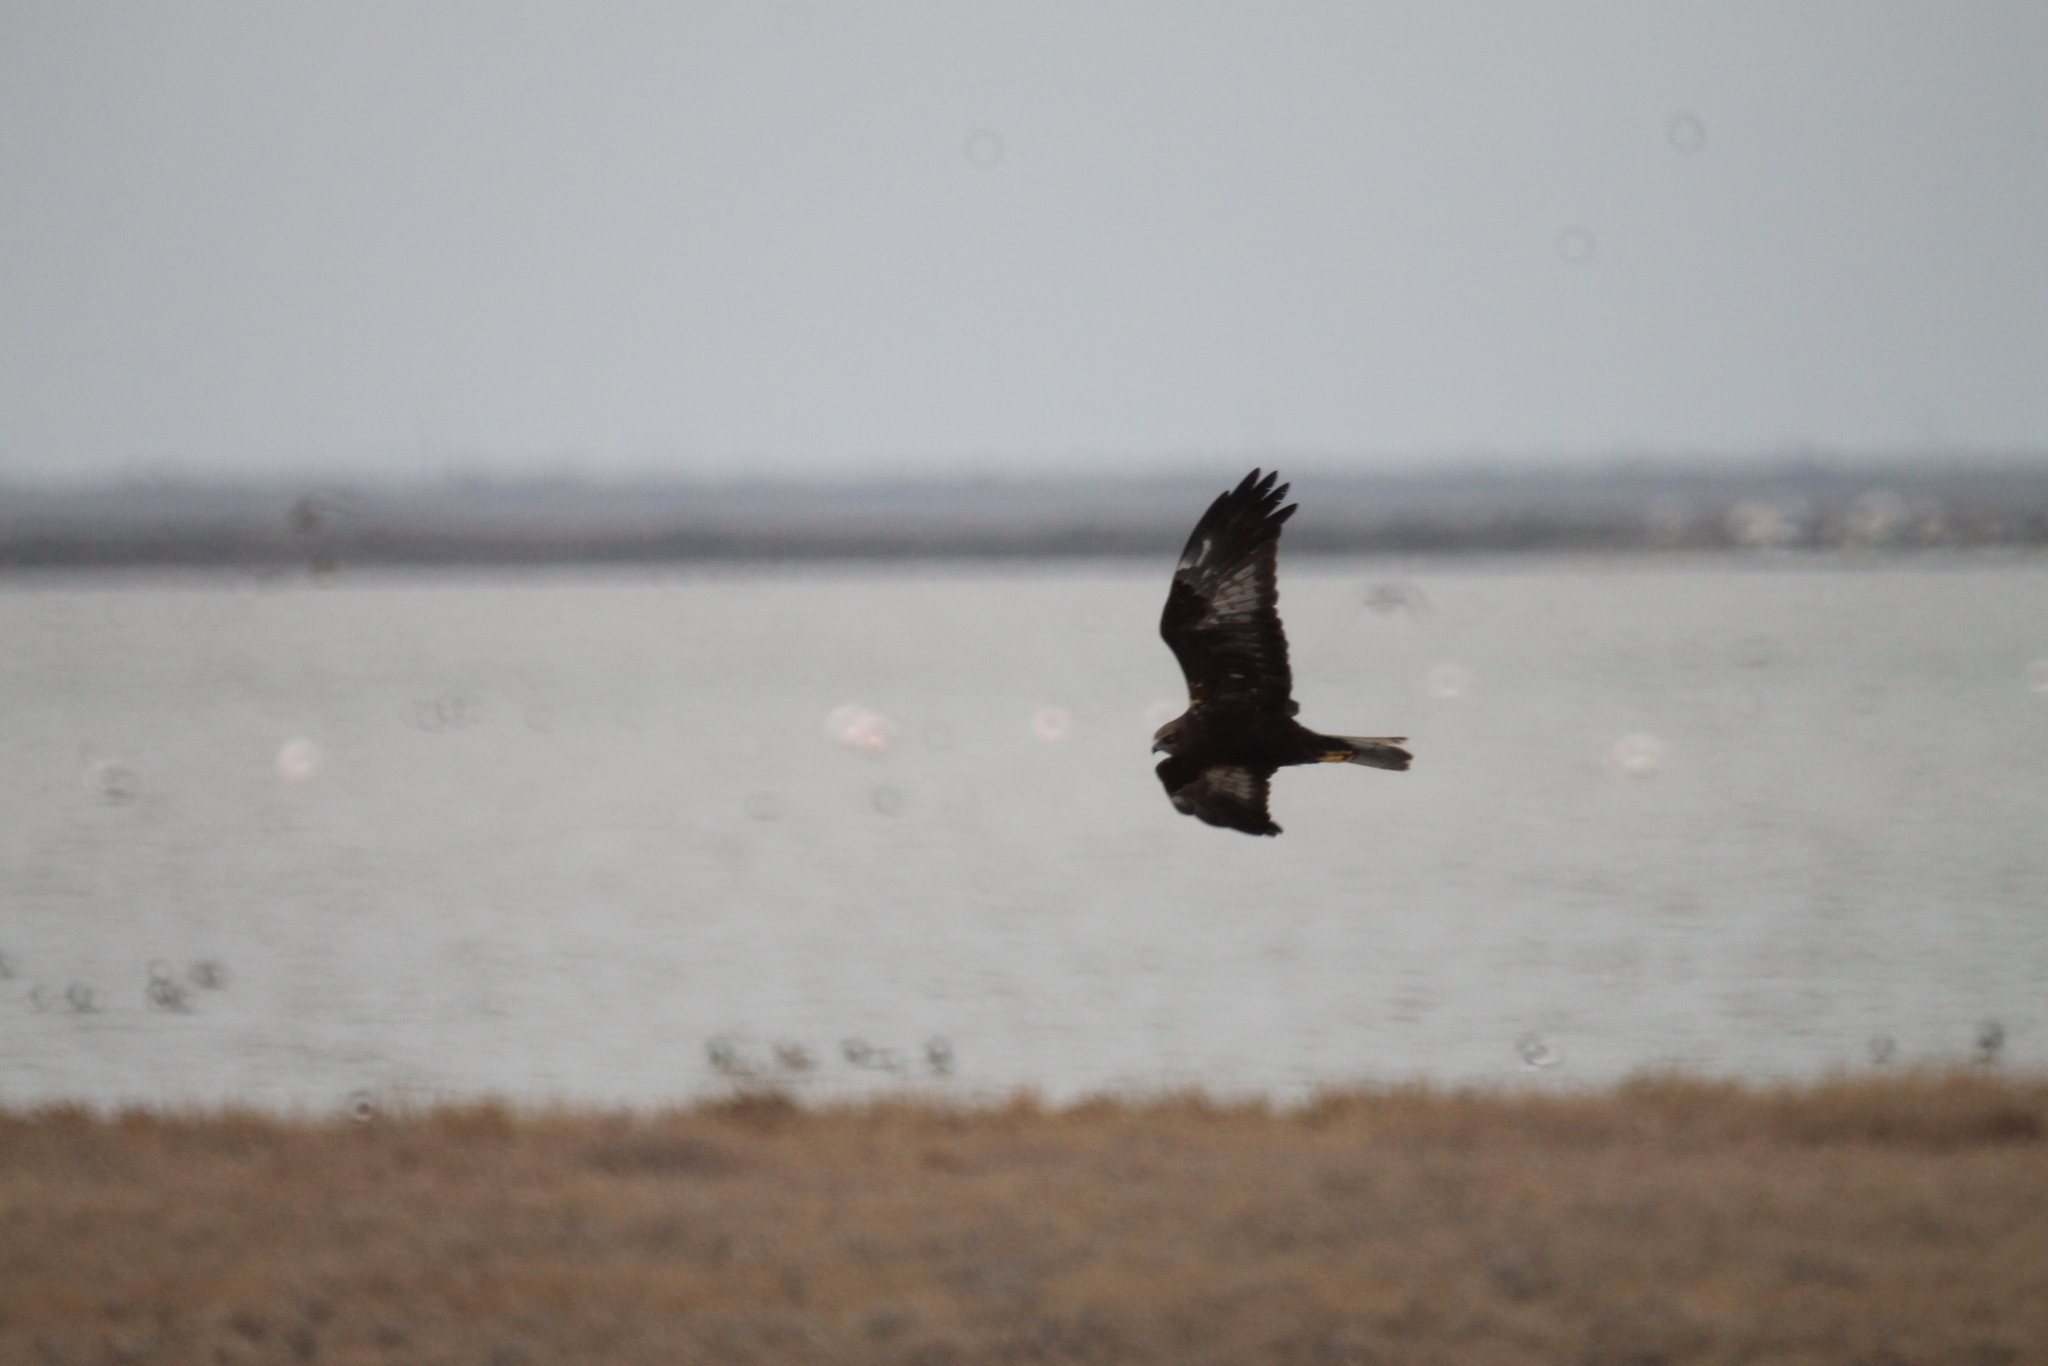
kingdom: Animalia
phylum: Chordata
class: Aves
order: Accipitriformes
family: Accipitridae
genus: Circus
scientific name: Circus aeruginosus
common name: Western marsh harrier
